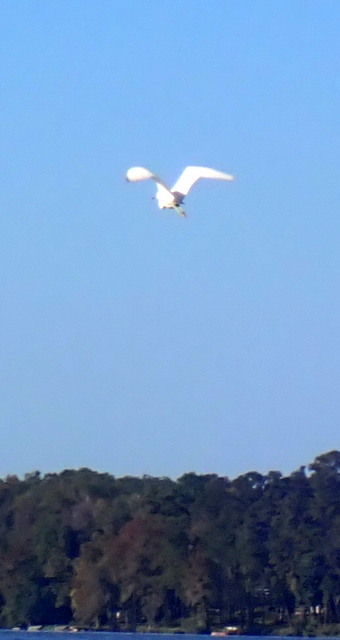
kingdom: Animalia
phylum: Chordata
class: Aves
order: Pelecaniformes
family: Ardeidae
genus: Egretta
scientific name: Egretta caerulea
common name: Little blue heron
